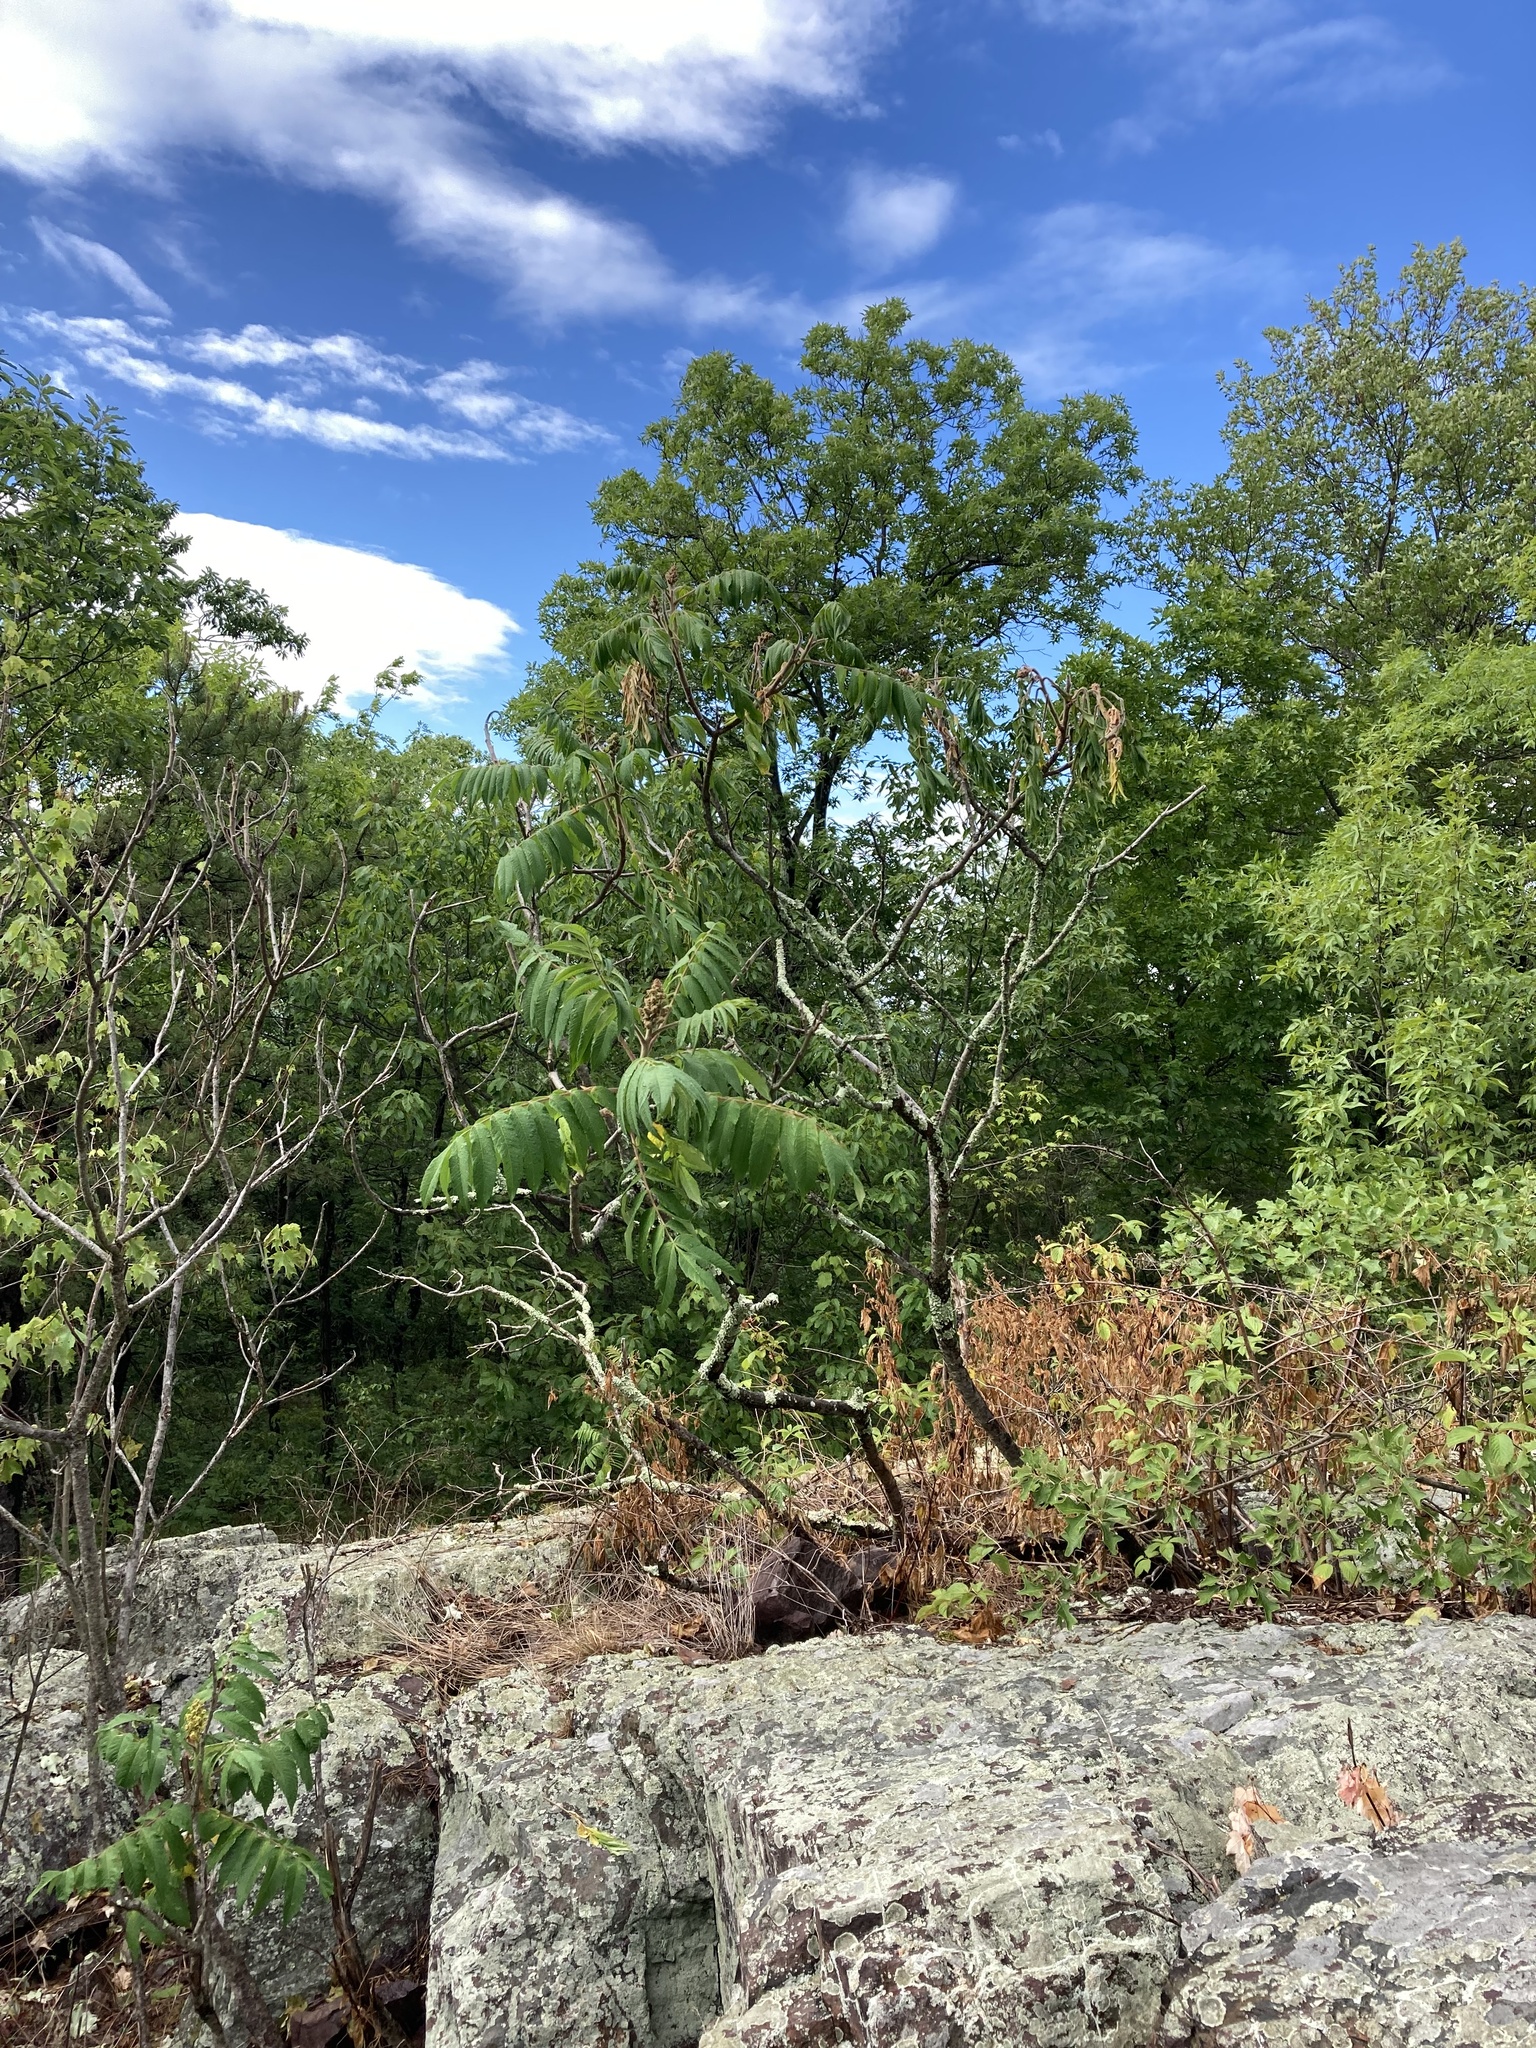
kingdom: Plantae
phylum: Tracheophyta
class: Magnoliopsida
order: Sapindales
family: Anacardiaceae
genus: Rhus
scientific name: Rhus typhina
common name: Staghorn sumac
